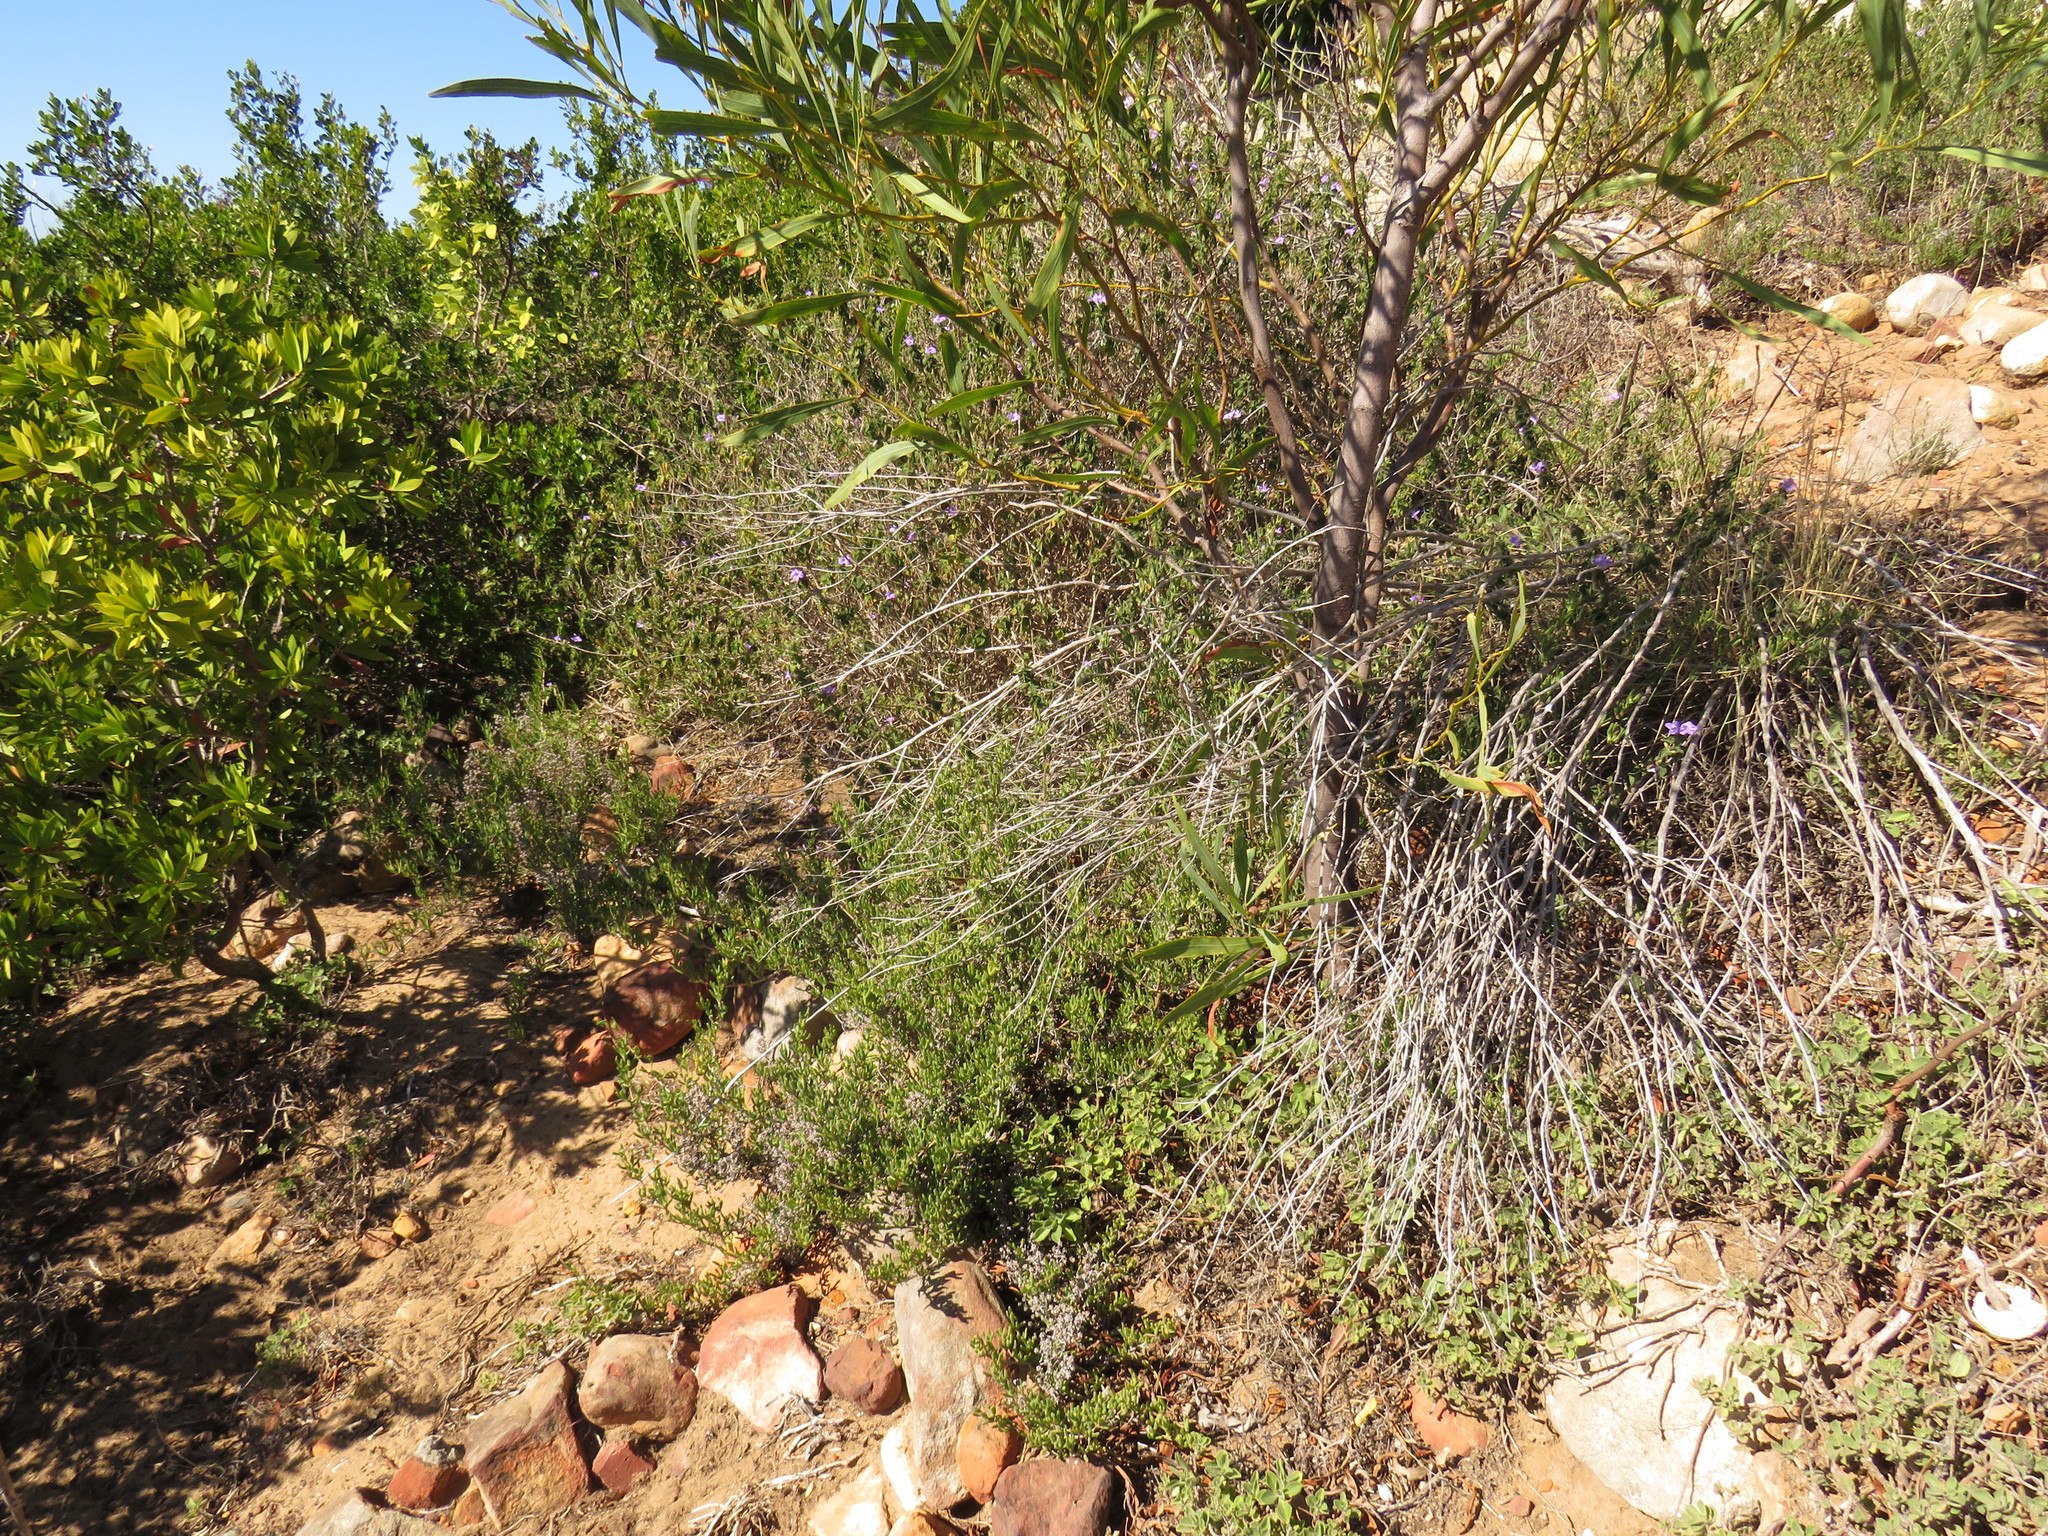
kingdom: Plantae
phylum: Tracheophyta
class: Magnoliopsida
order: Lamiales
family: Acanthaceae
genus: Barleria
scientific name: Barleria obtusa
